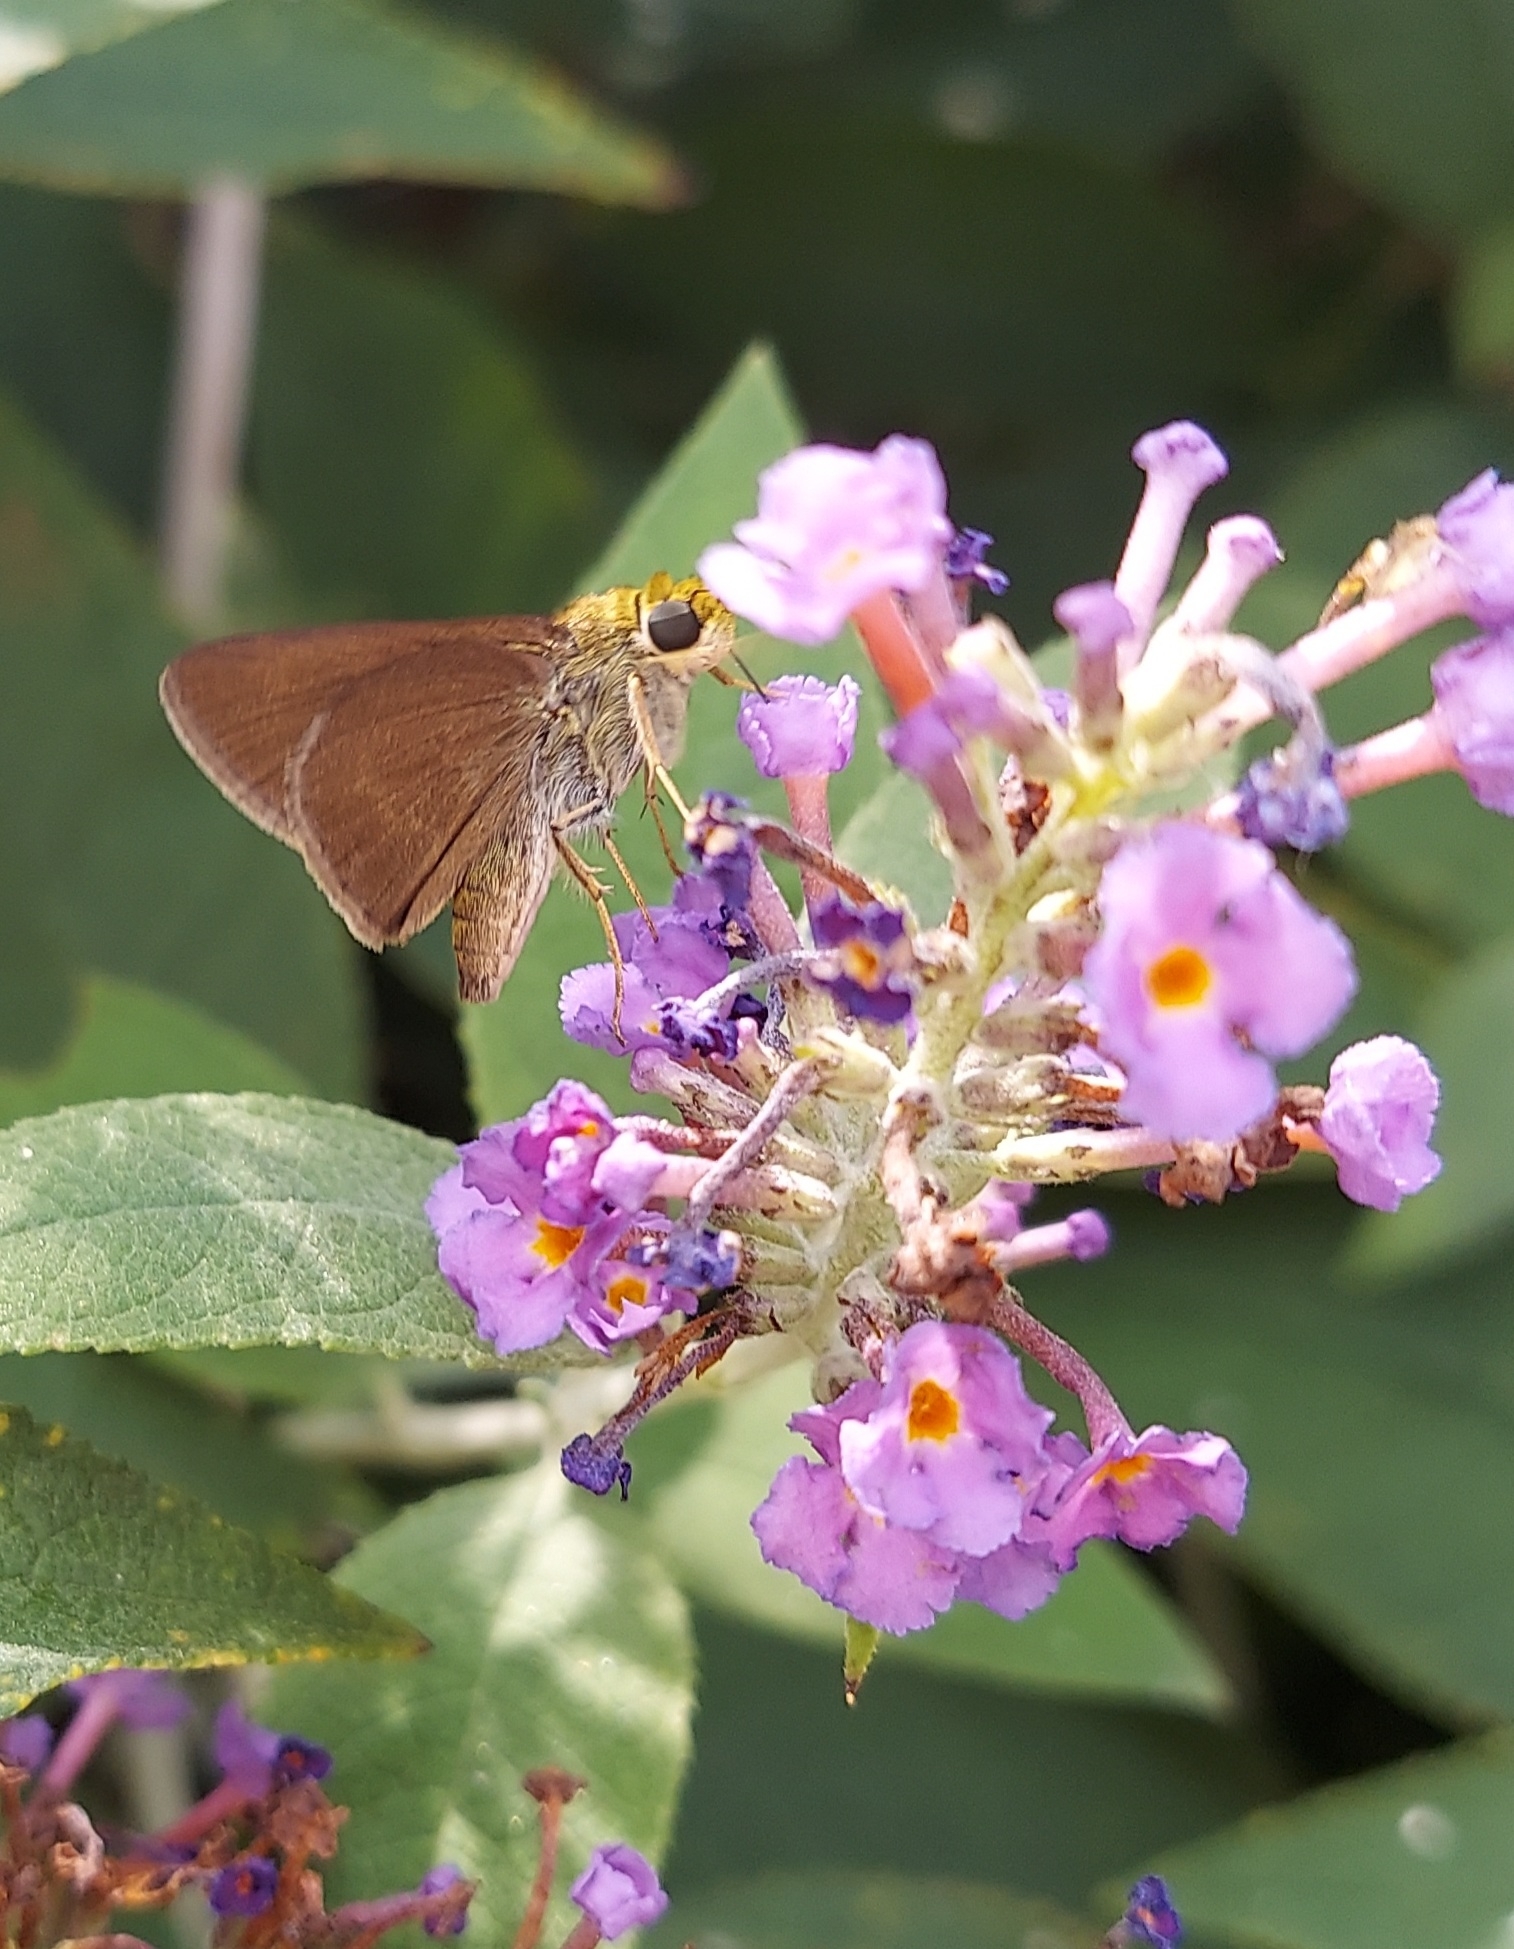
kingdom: Animalia
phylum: Arthropoda
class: Insecta
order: Lepidoptera
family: Hesperiidae
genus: Euphyes
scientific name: Euphyes vestris
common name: Dun skipper
